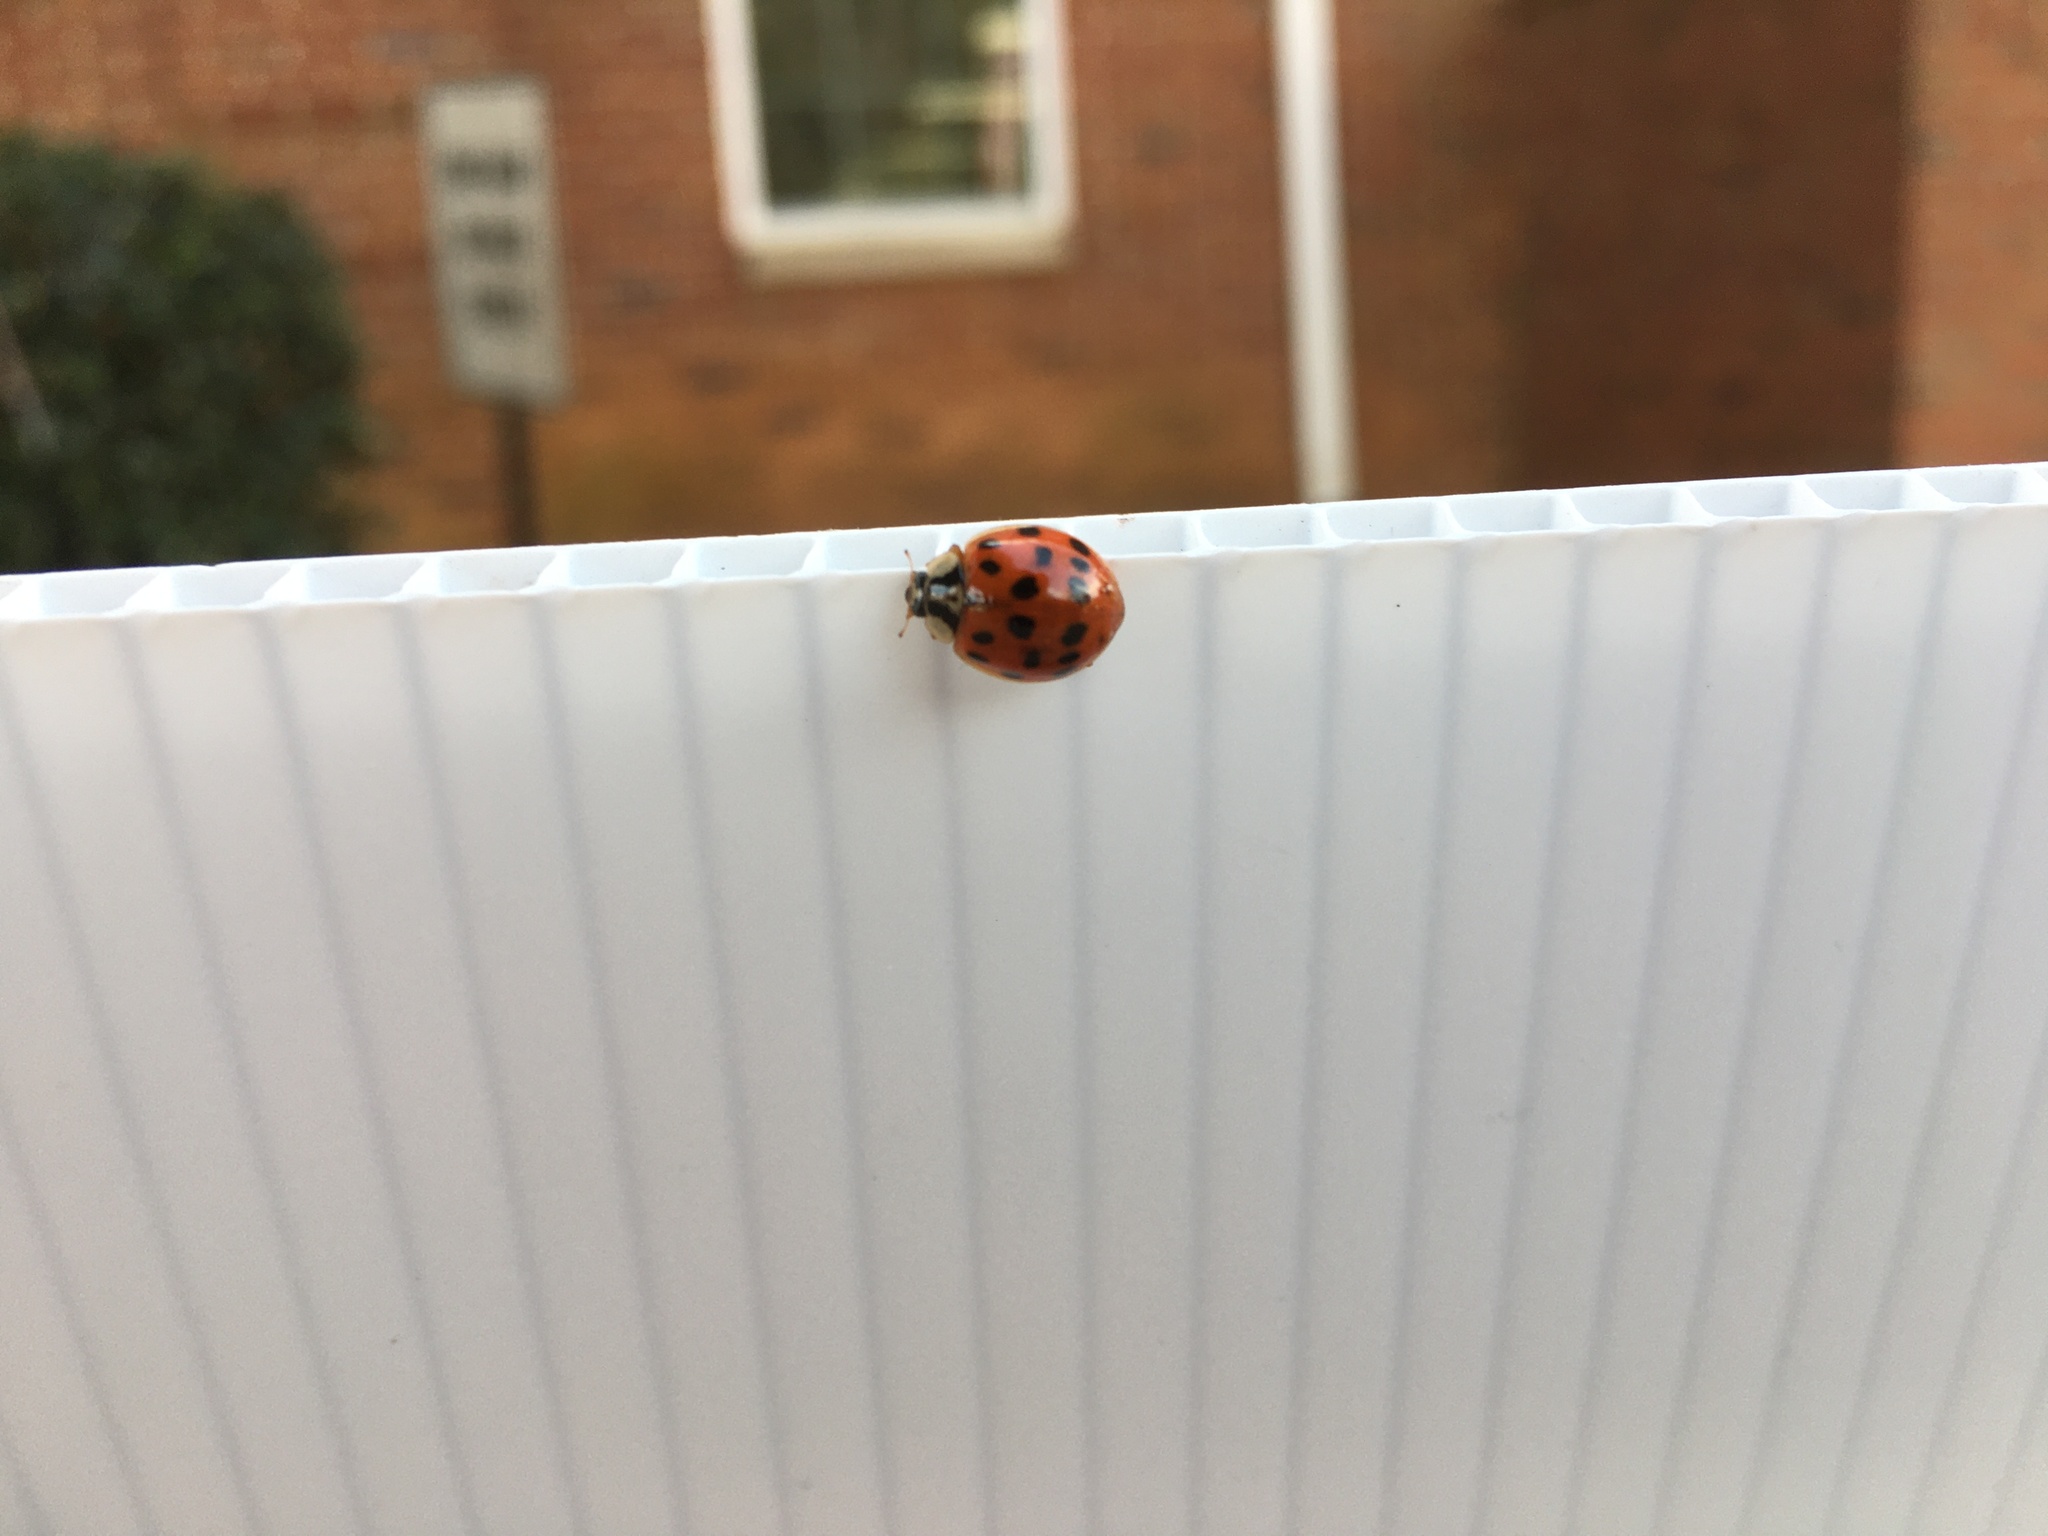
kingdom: Animalia
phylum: Arthropoda
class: Insecta
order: Coleoptera
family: Coccinellidae
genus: Harmonia
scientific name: Harmonia axyridis
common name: Harlequin ladybird
